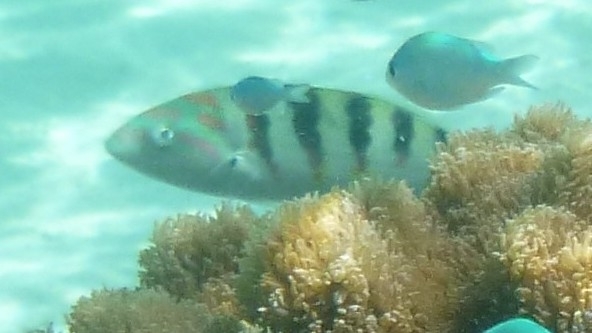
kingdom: Animalia
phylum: Chordata
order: Perciformes
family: Labridae
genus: Thalassoma
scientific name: Thalassoma hardwicke
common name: Sixbar wrasse
